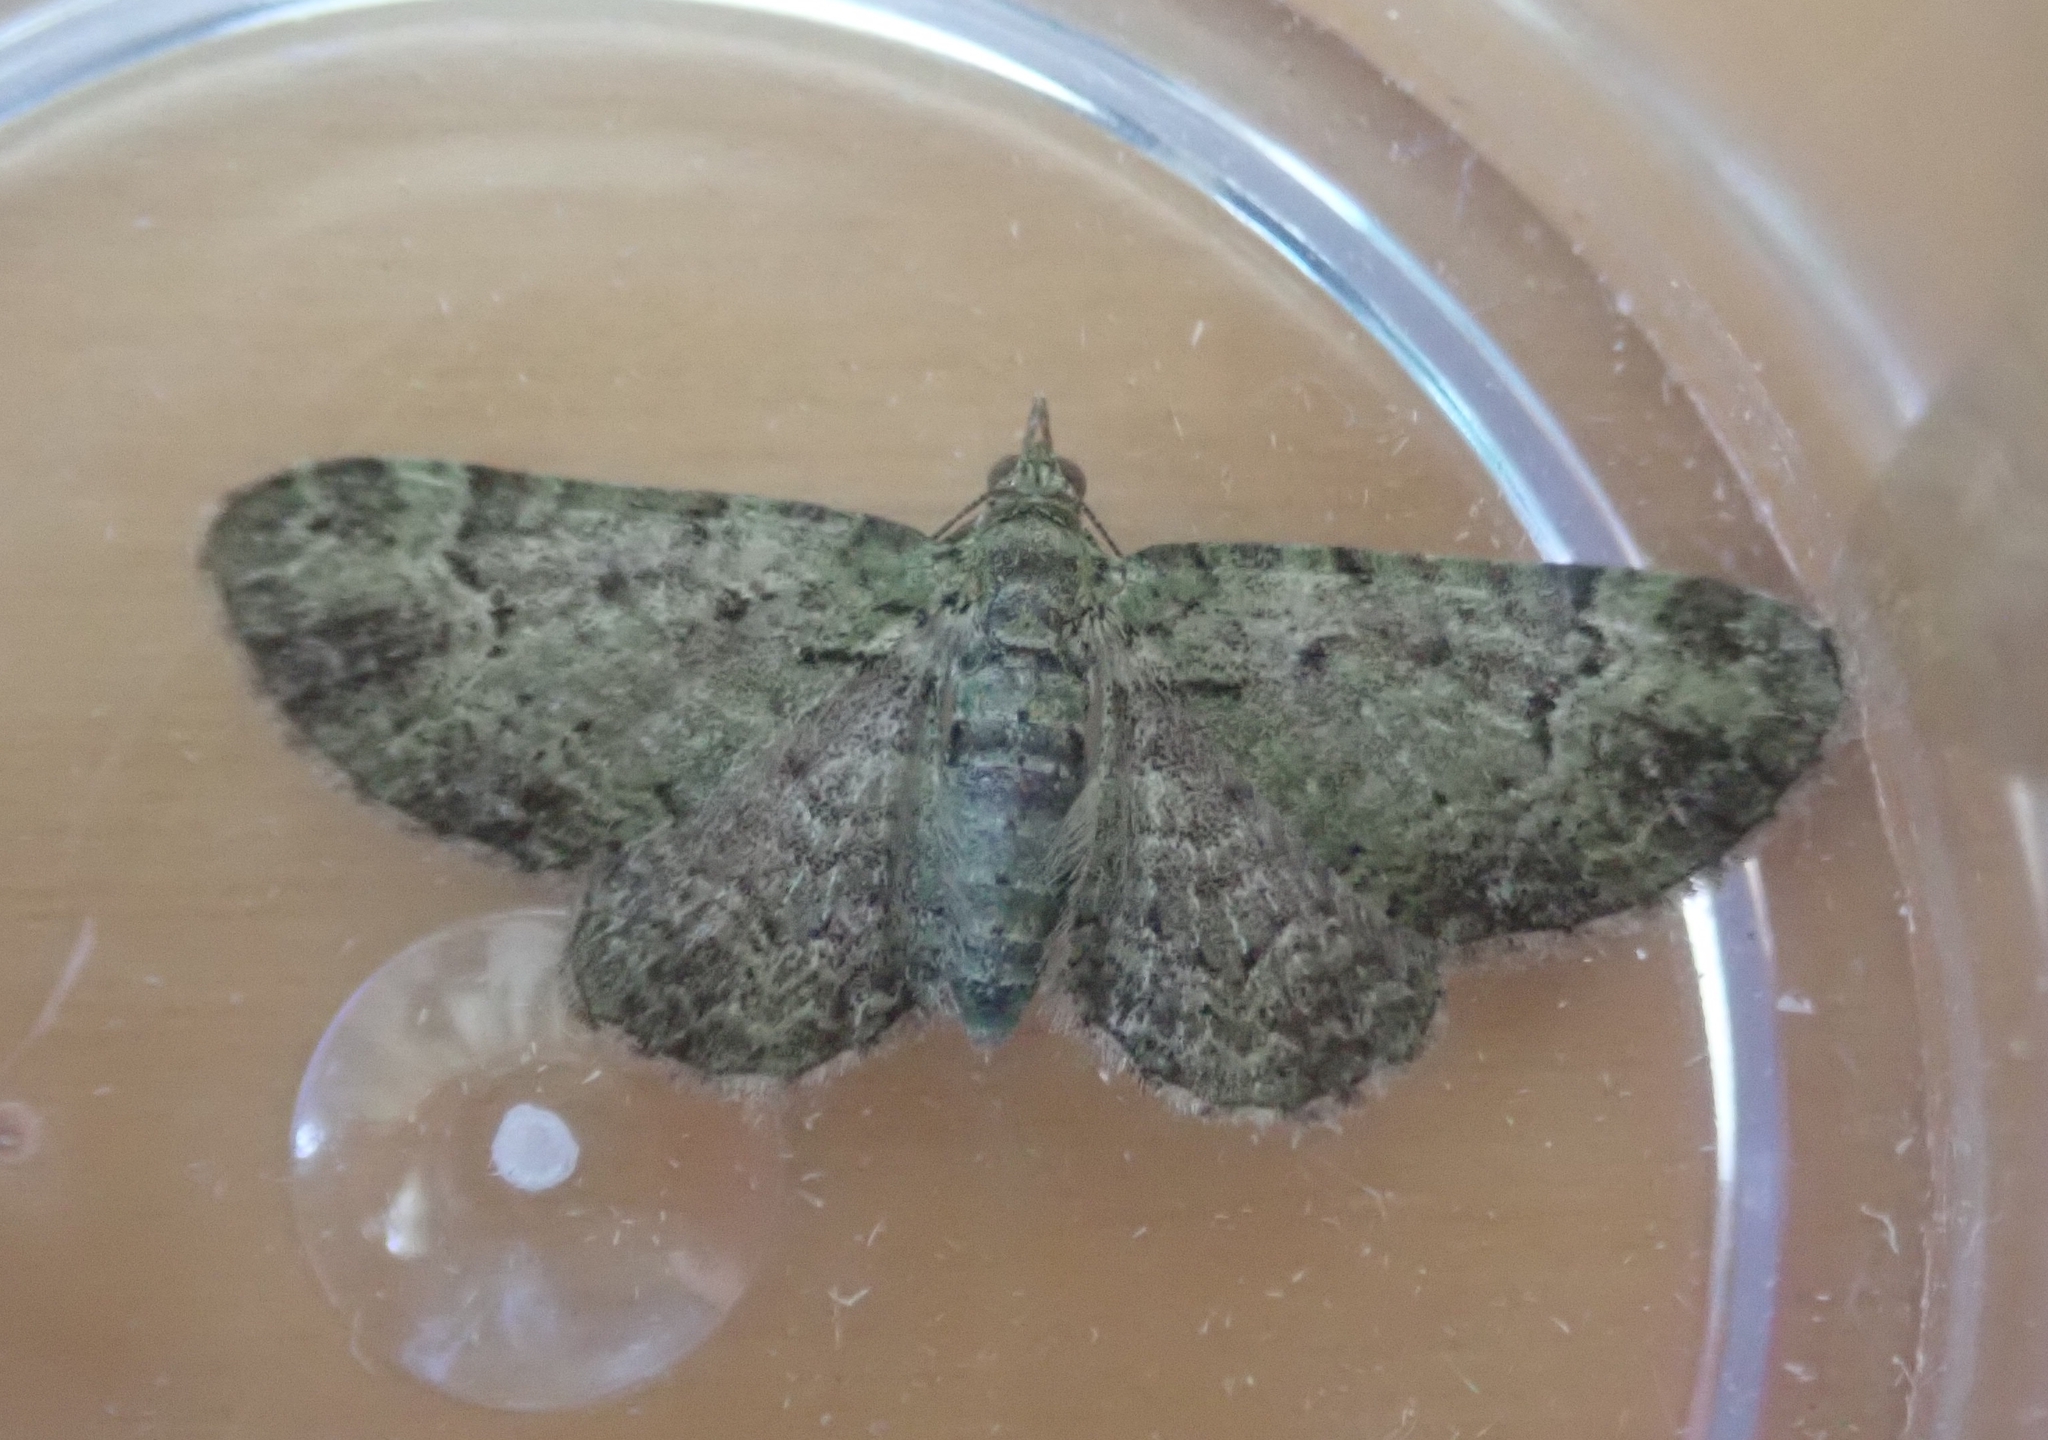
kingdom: Animalia
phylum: Arthropoda
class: Insecta
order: Lepidoptera
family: Geometridae
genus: Pasiphila
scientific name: Pasiphila rectangulata
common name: Green pug
